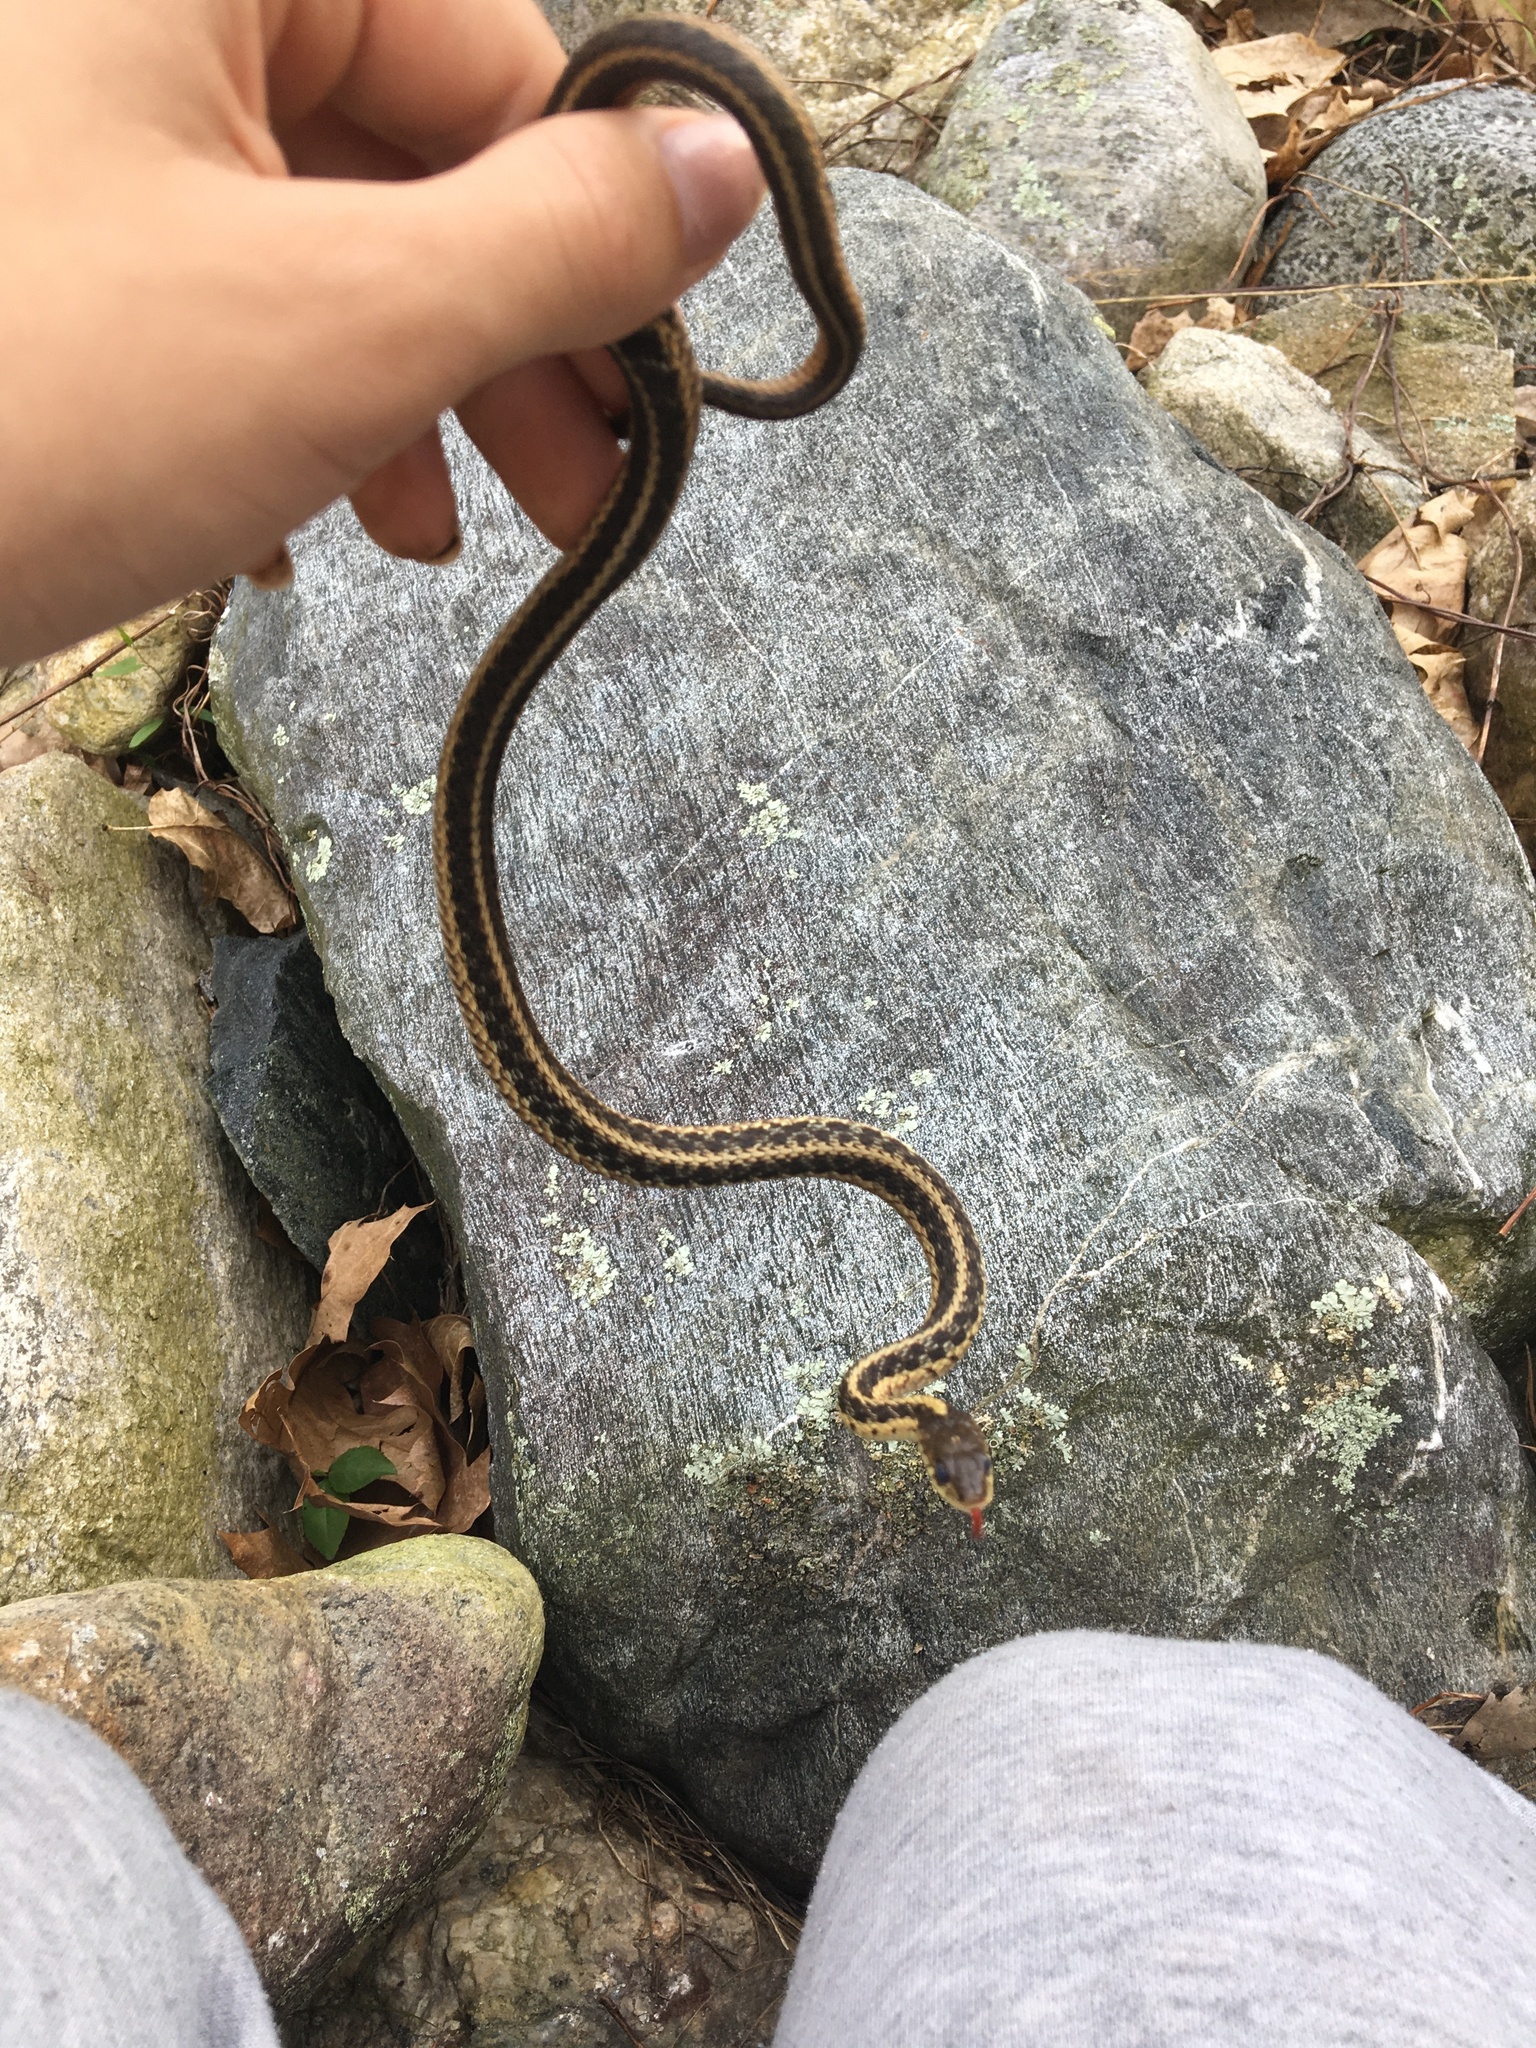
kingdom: Animalia
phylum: Chordata
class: Squamata
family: Colubridae
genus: Thamnophis
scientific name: Thamnophis sirtalis
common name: Common garter snake
